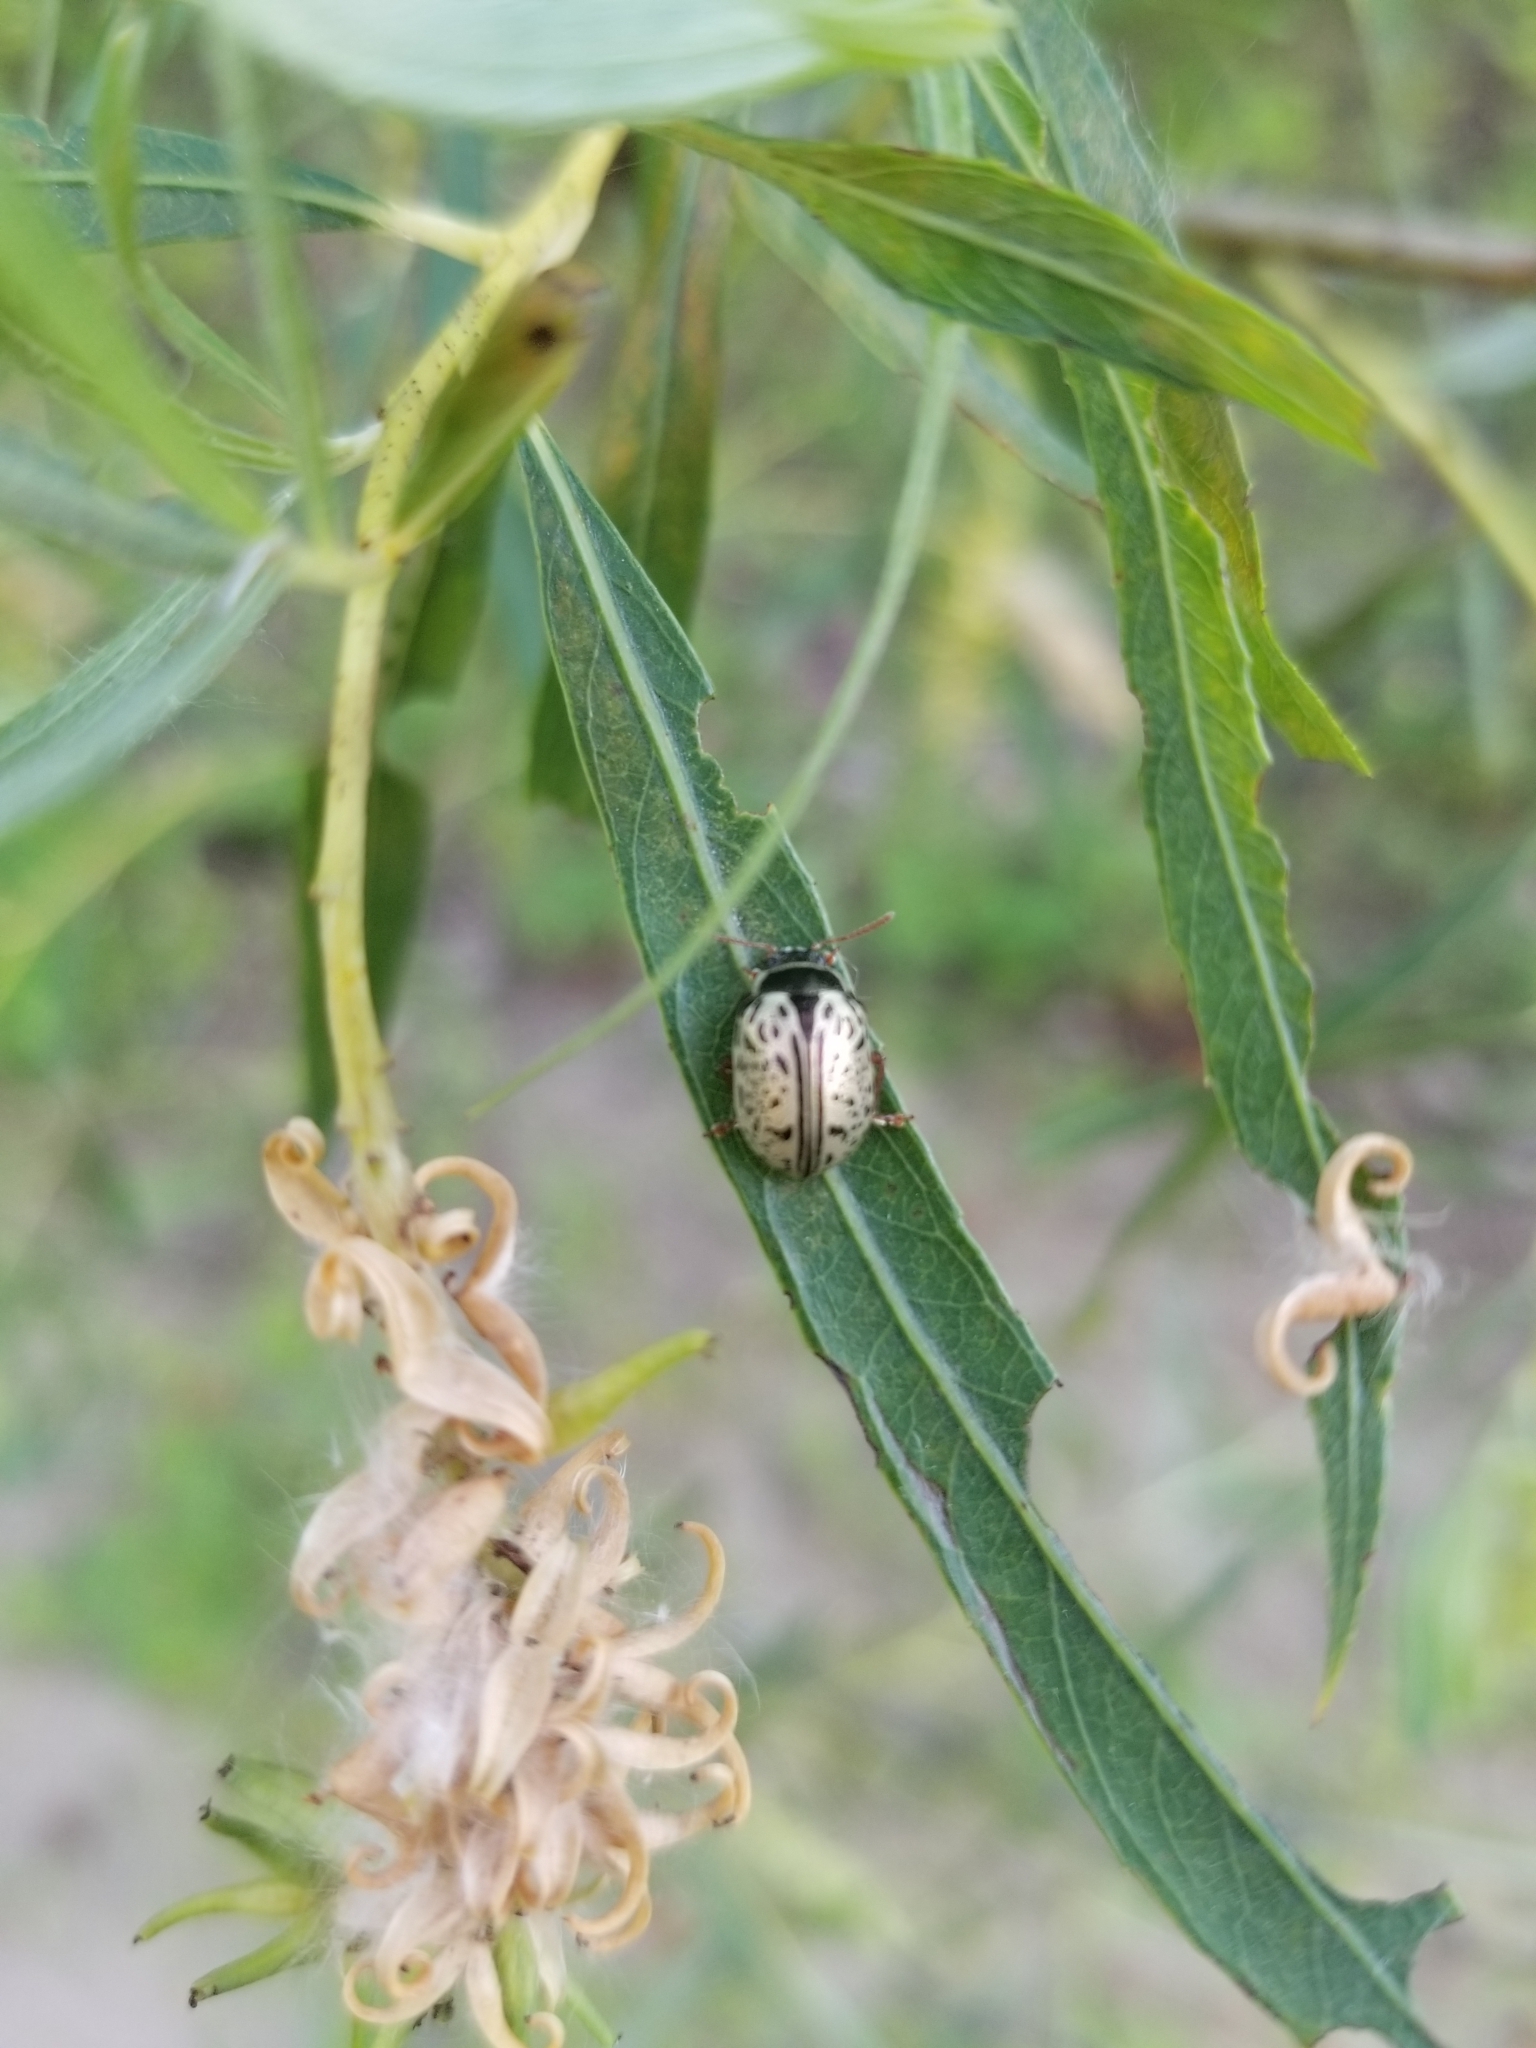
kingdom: Animalia
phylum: Arthropoda
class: Insecta
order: Coleoptera
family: Chrysomelidae
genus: Calligrapha
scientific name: Calligrapha multipunctata
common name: Common willow calligrapher beetle
